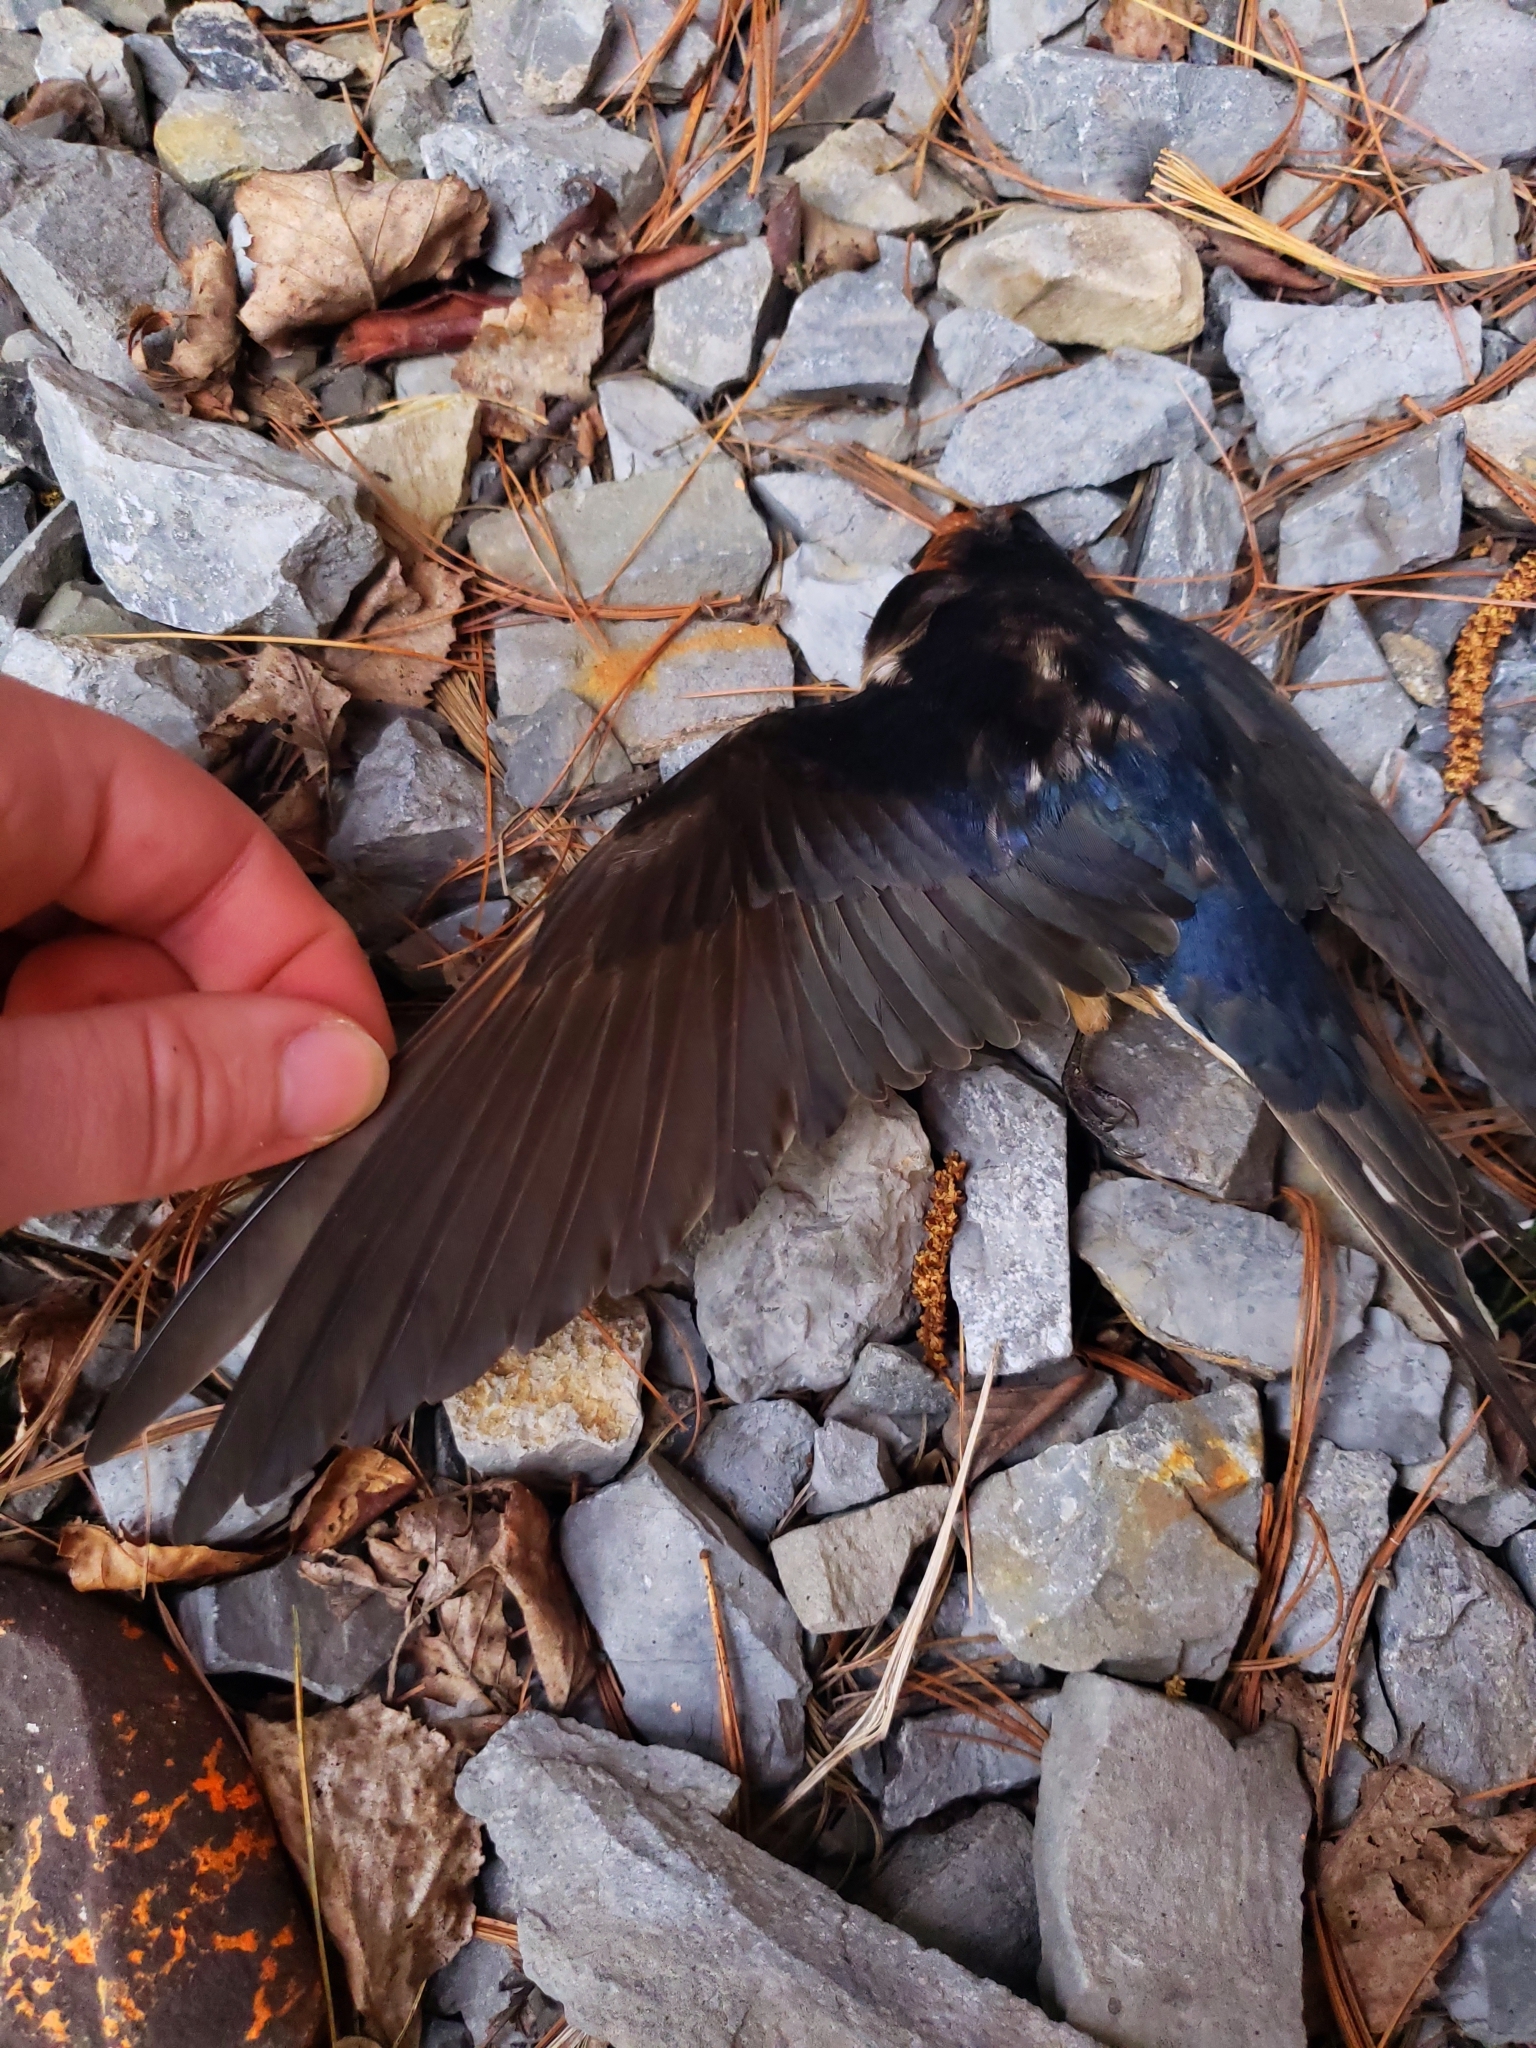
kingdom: Animalia
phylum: Chordata
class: Aves
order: Passeriformes
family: Hirundinidae
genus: Hirundo
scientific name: Hirundo rustica
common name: Barn swallow
